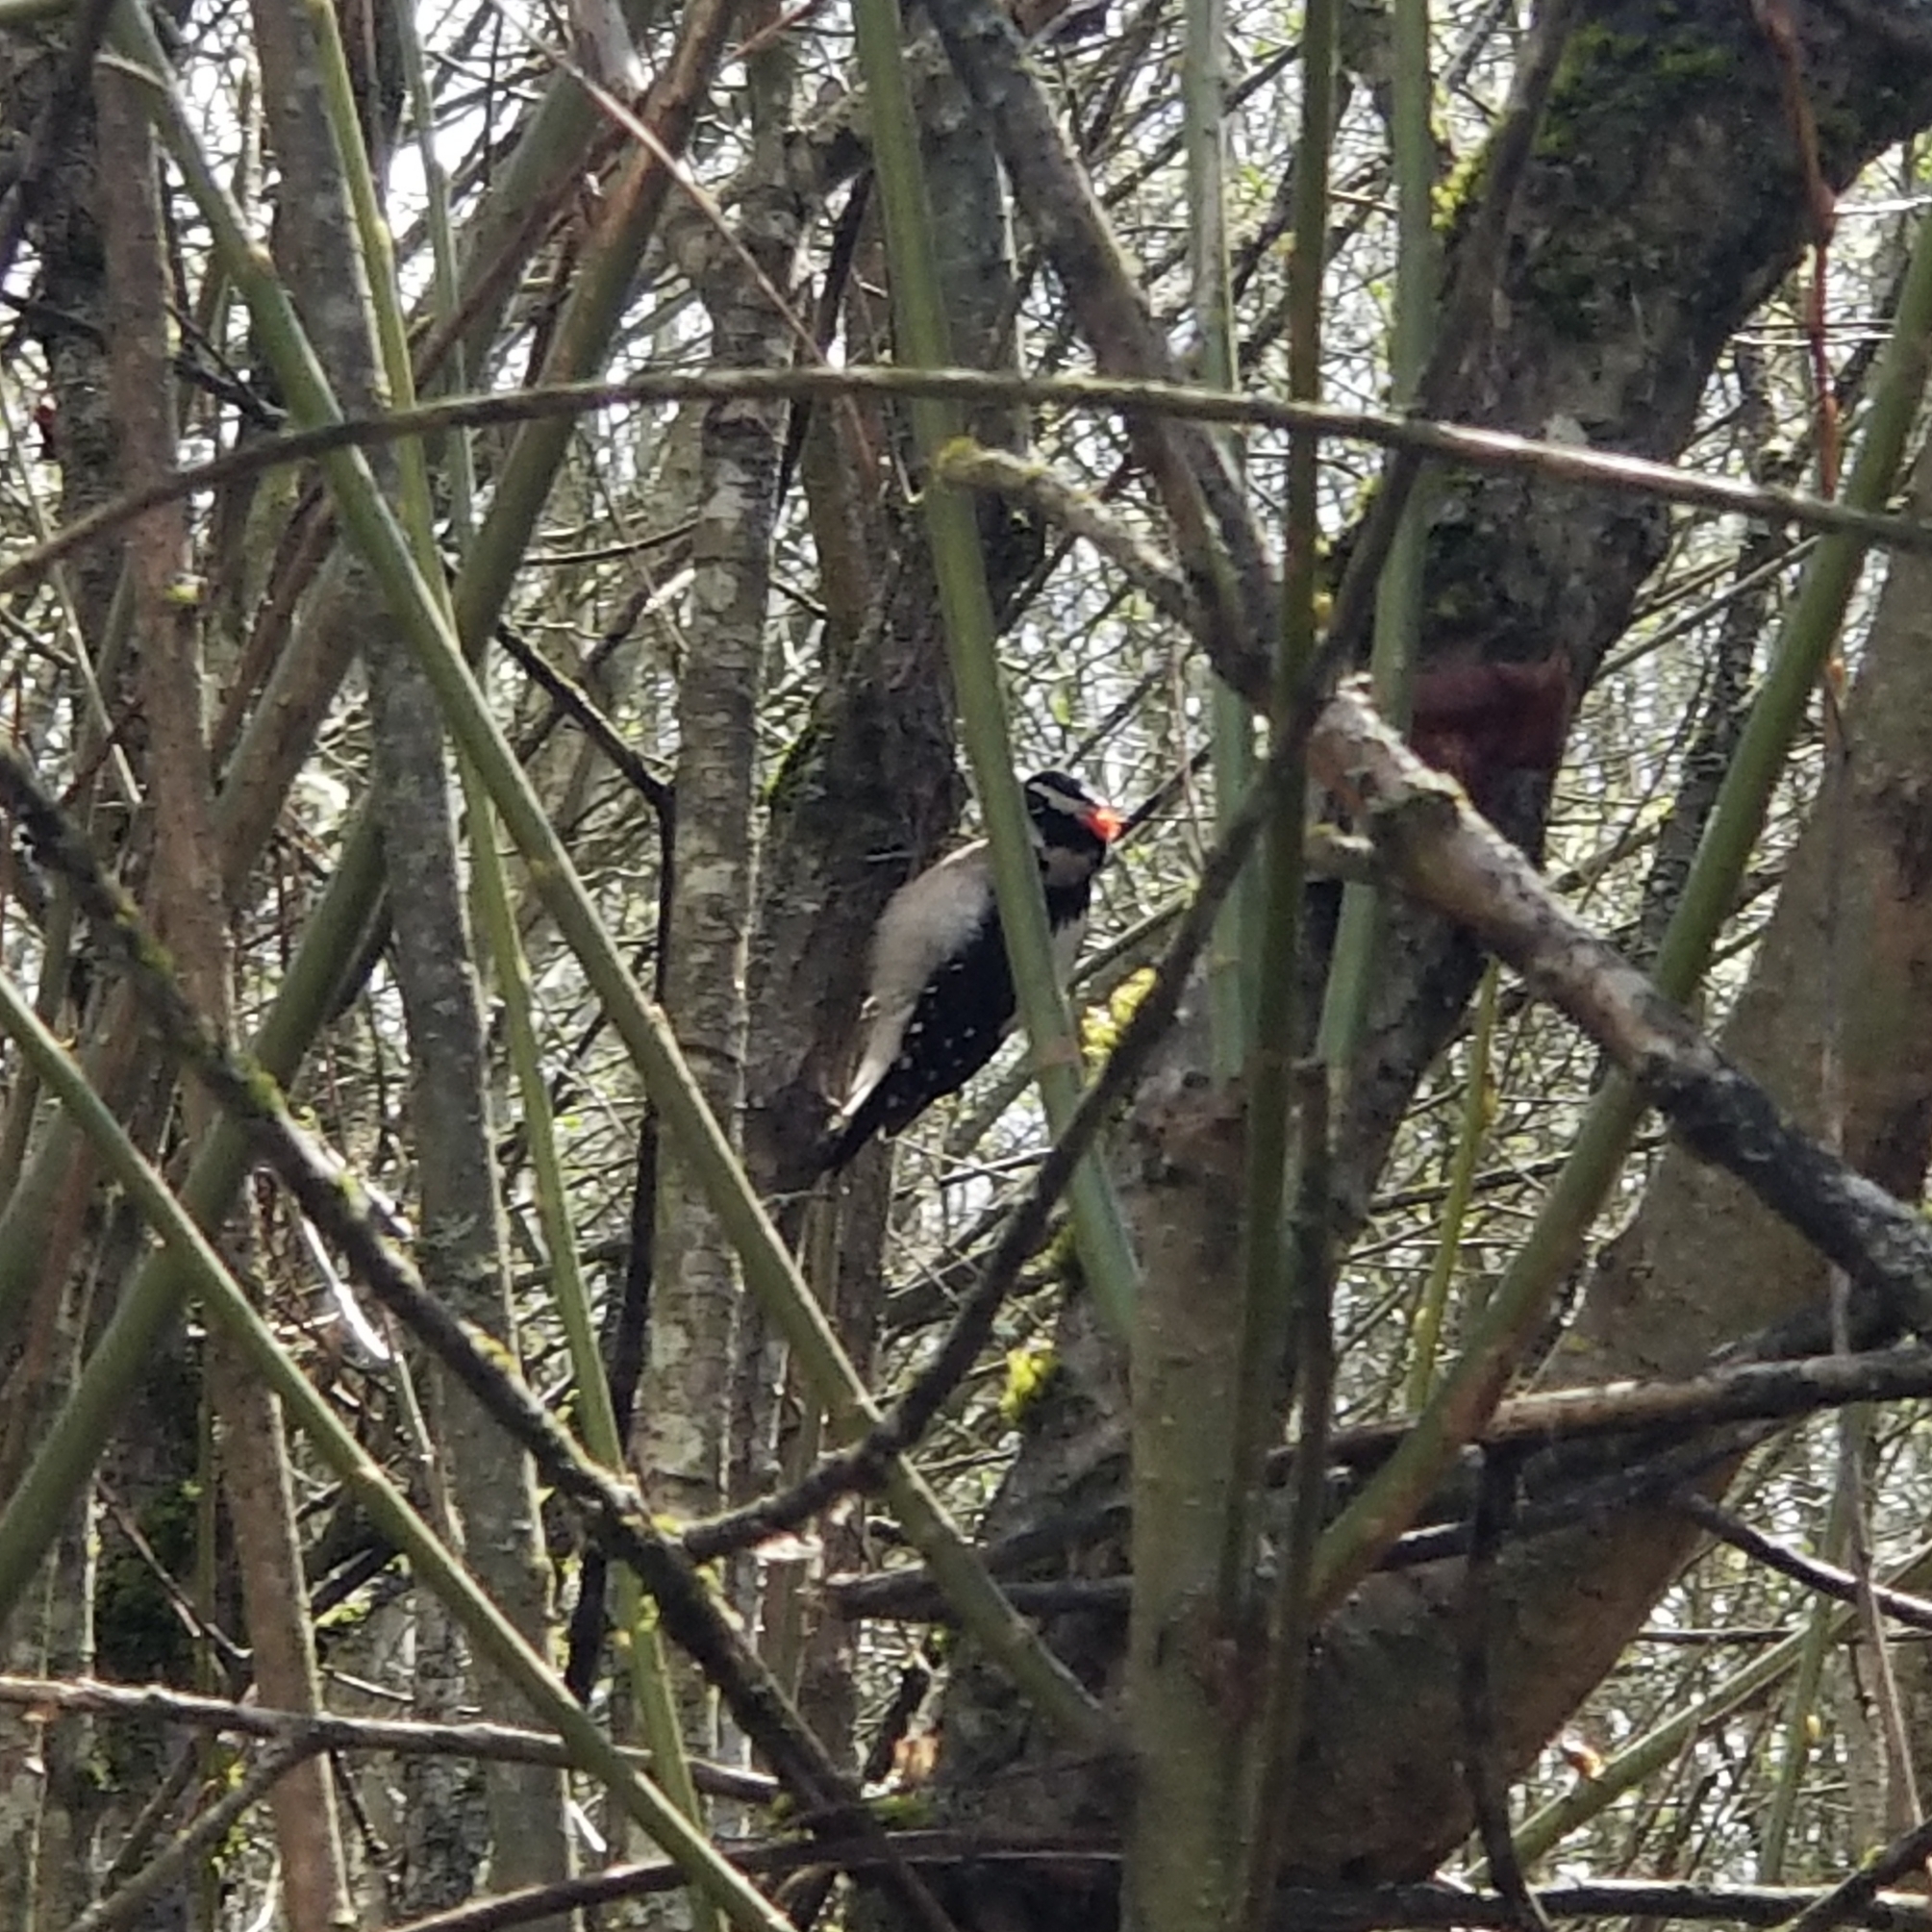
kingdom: Animalia
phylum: Chordata
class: Aves
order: Piciformes
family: Picidae
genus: Dryobates
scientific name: Dryobates pubescens
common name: Downy woodpecker
